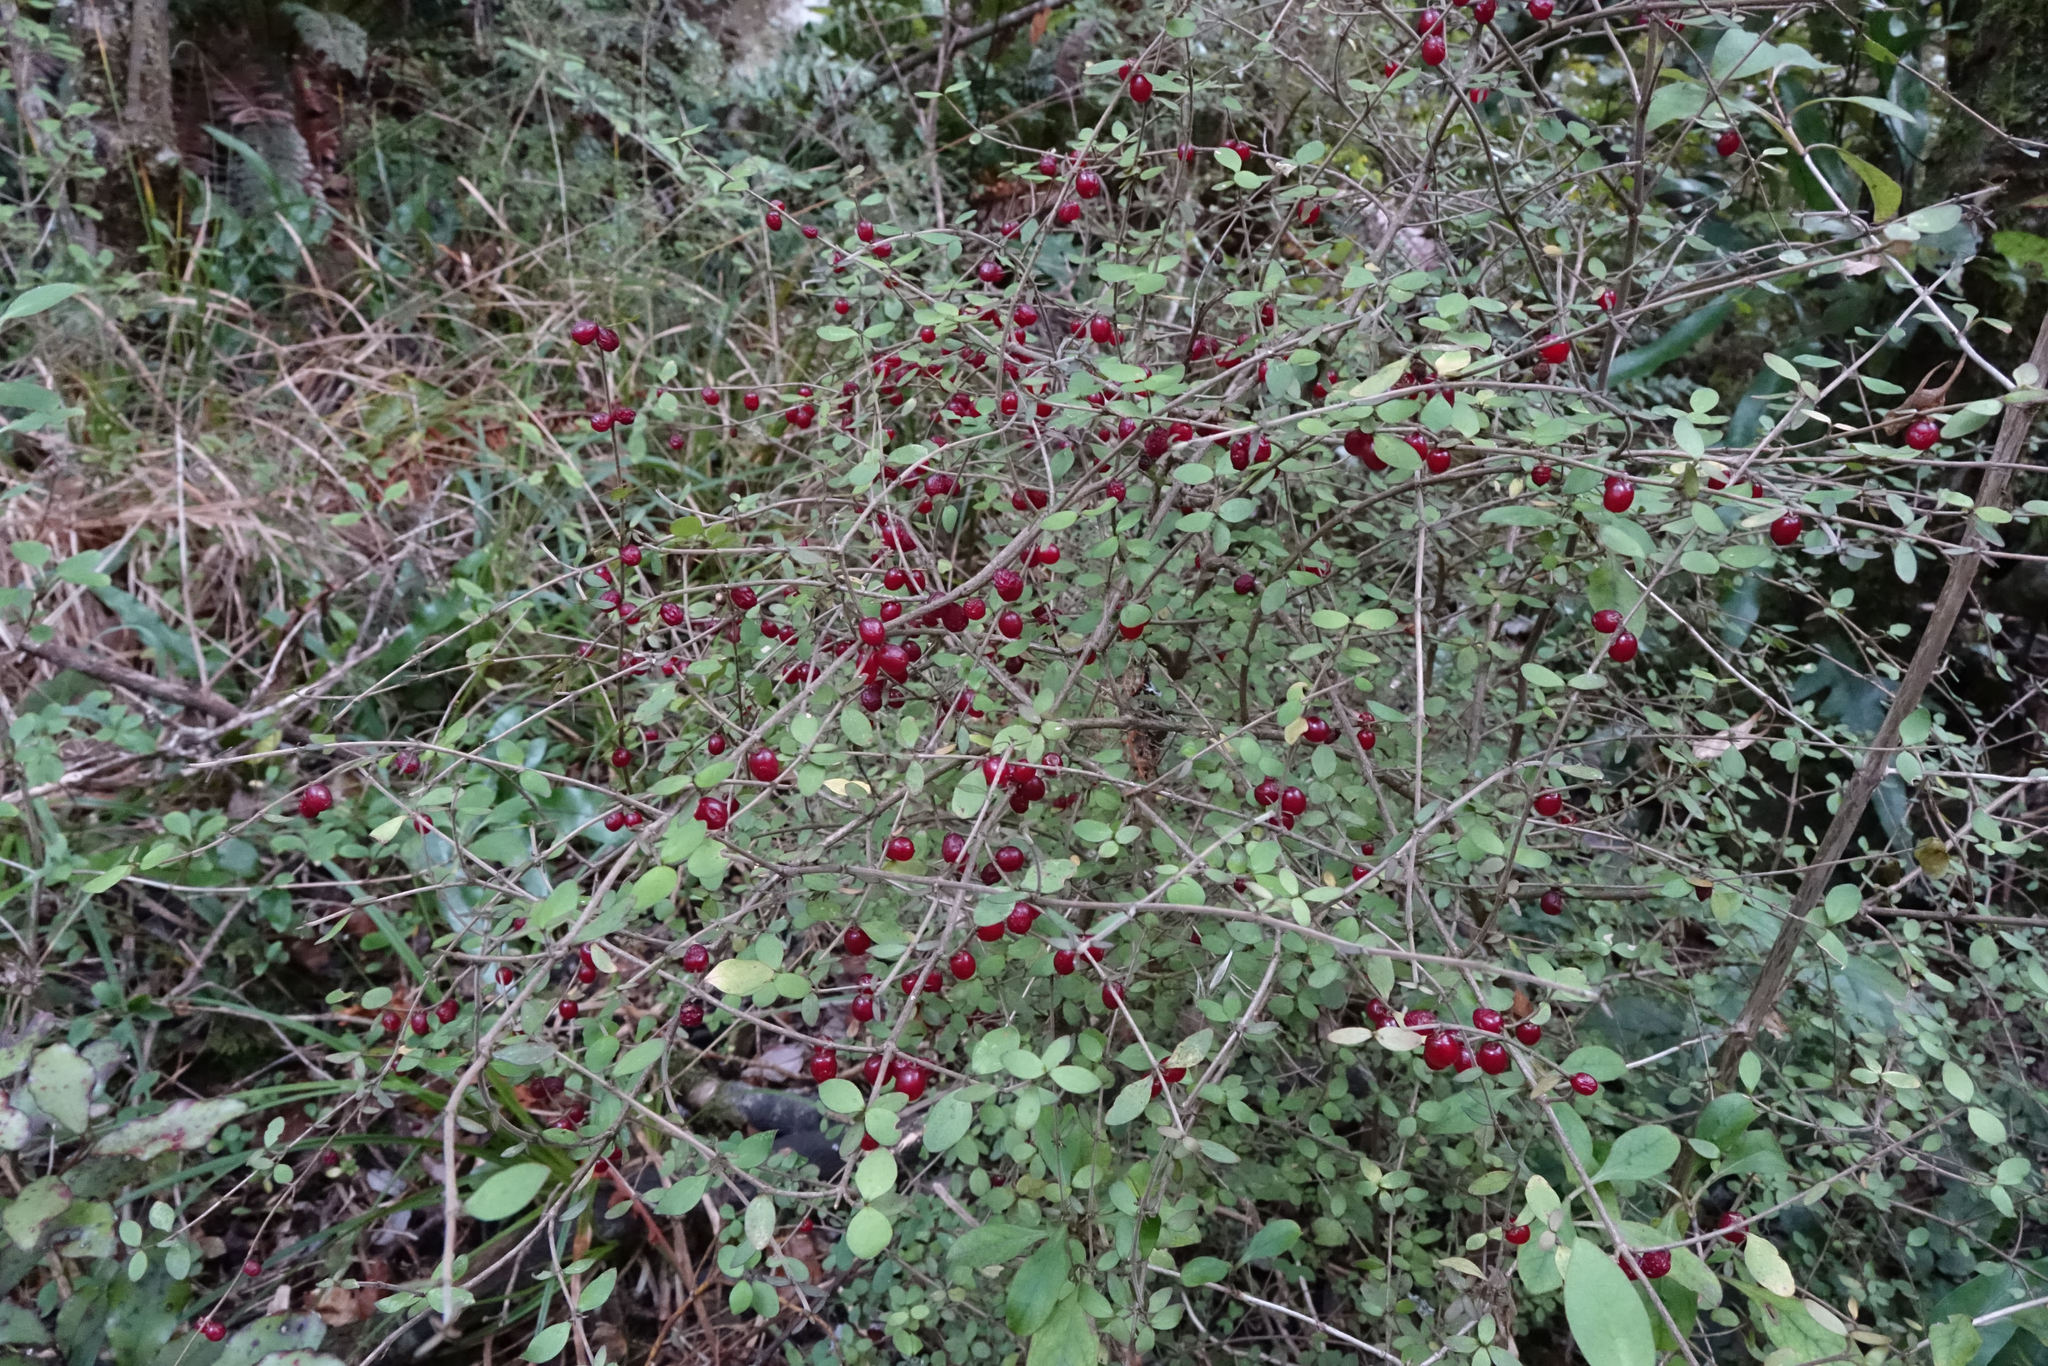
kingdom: Plantae
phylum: Tracheophyta
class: Magnoliopsida
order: Gentianales
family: Rubiaceae
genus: Coprosma
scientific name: Coprosma rhamnoides
